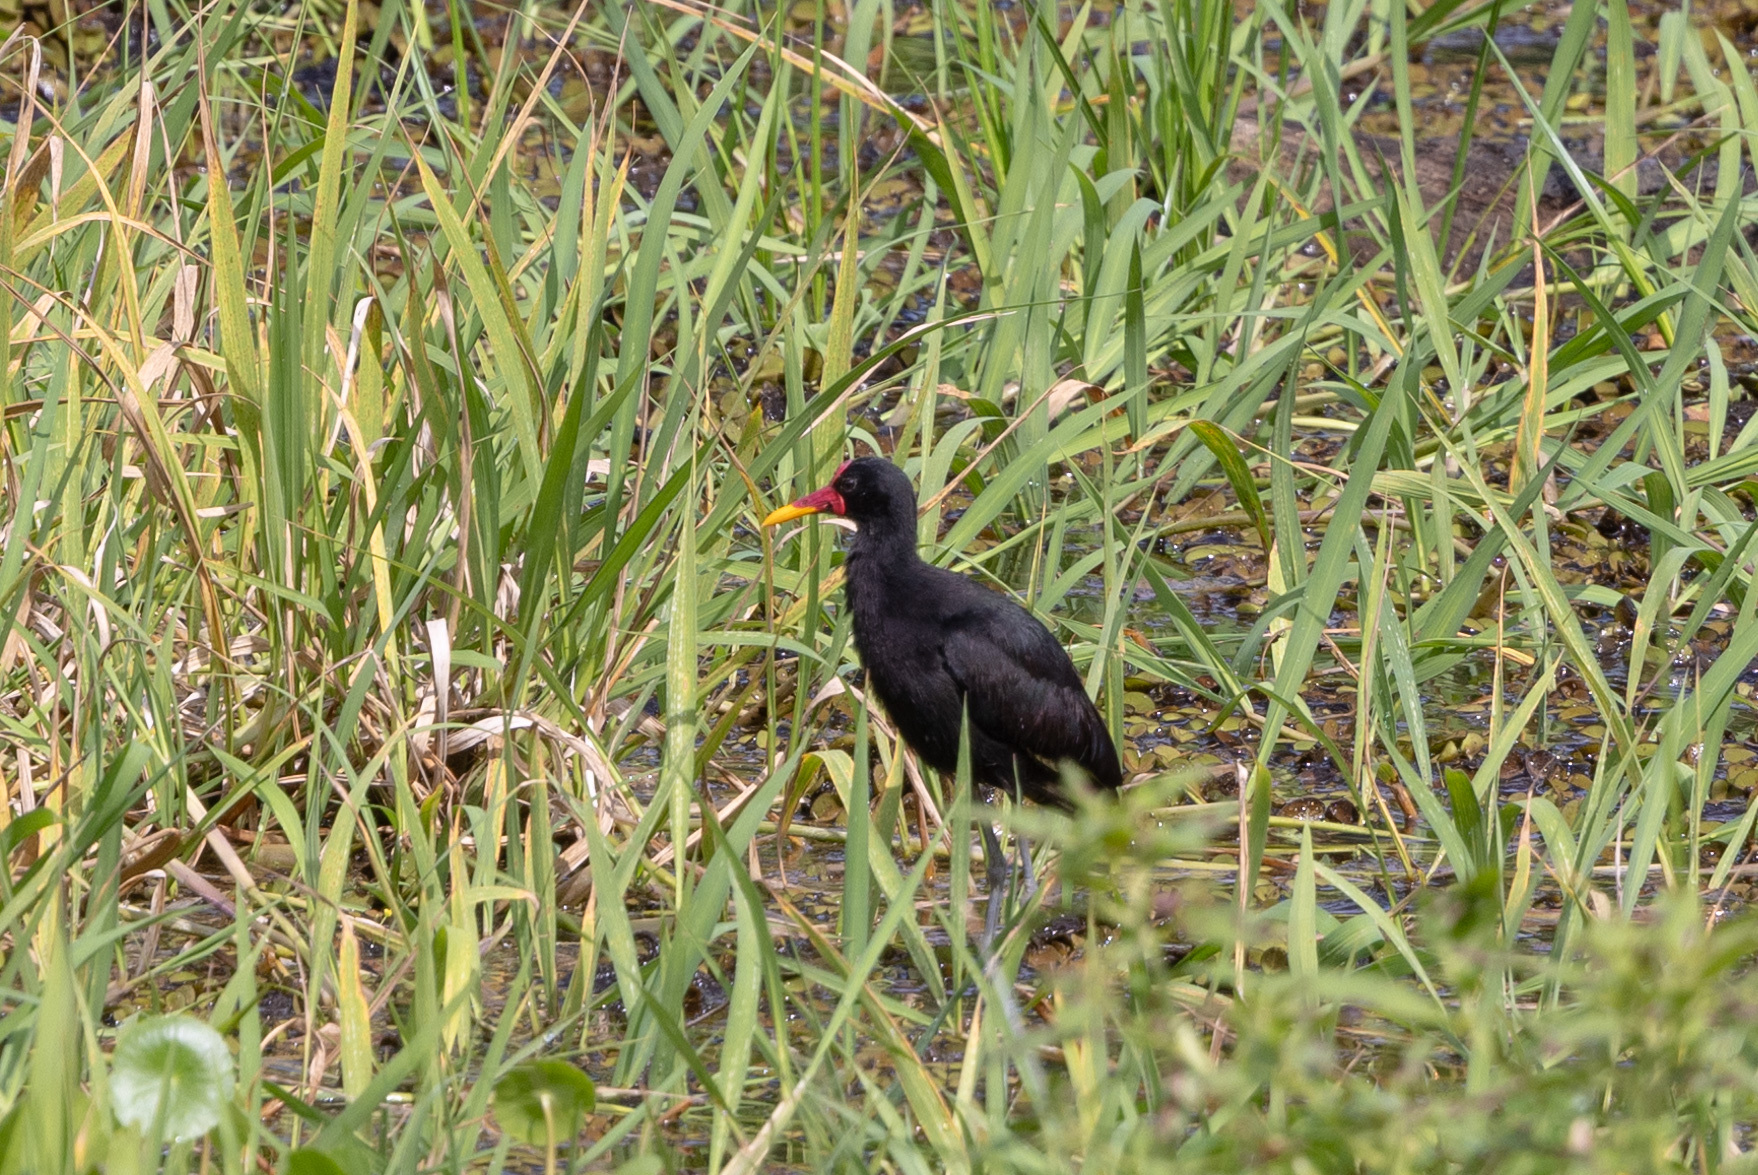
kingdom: Animalia
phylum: Chordata
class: Aves
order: Charadriiformes
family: Jacanidae
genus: Jacana
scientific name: Jacana jacana
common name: Wattled jacana
